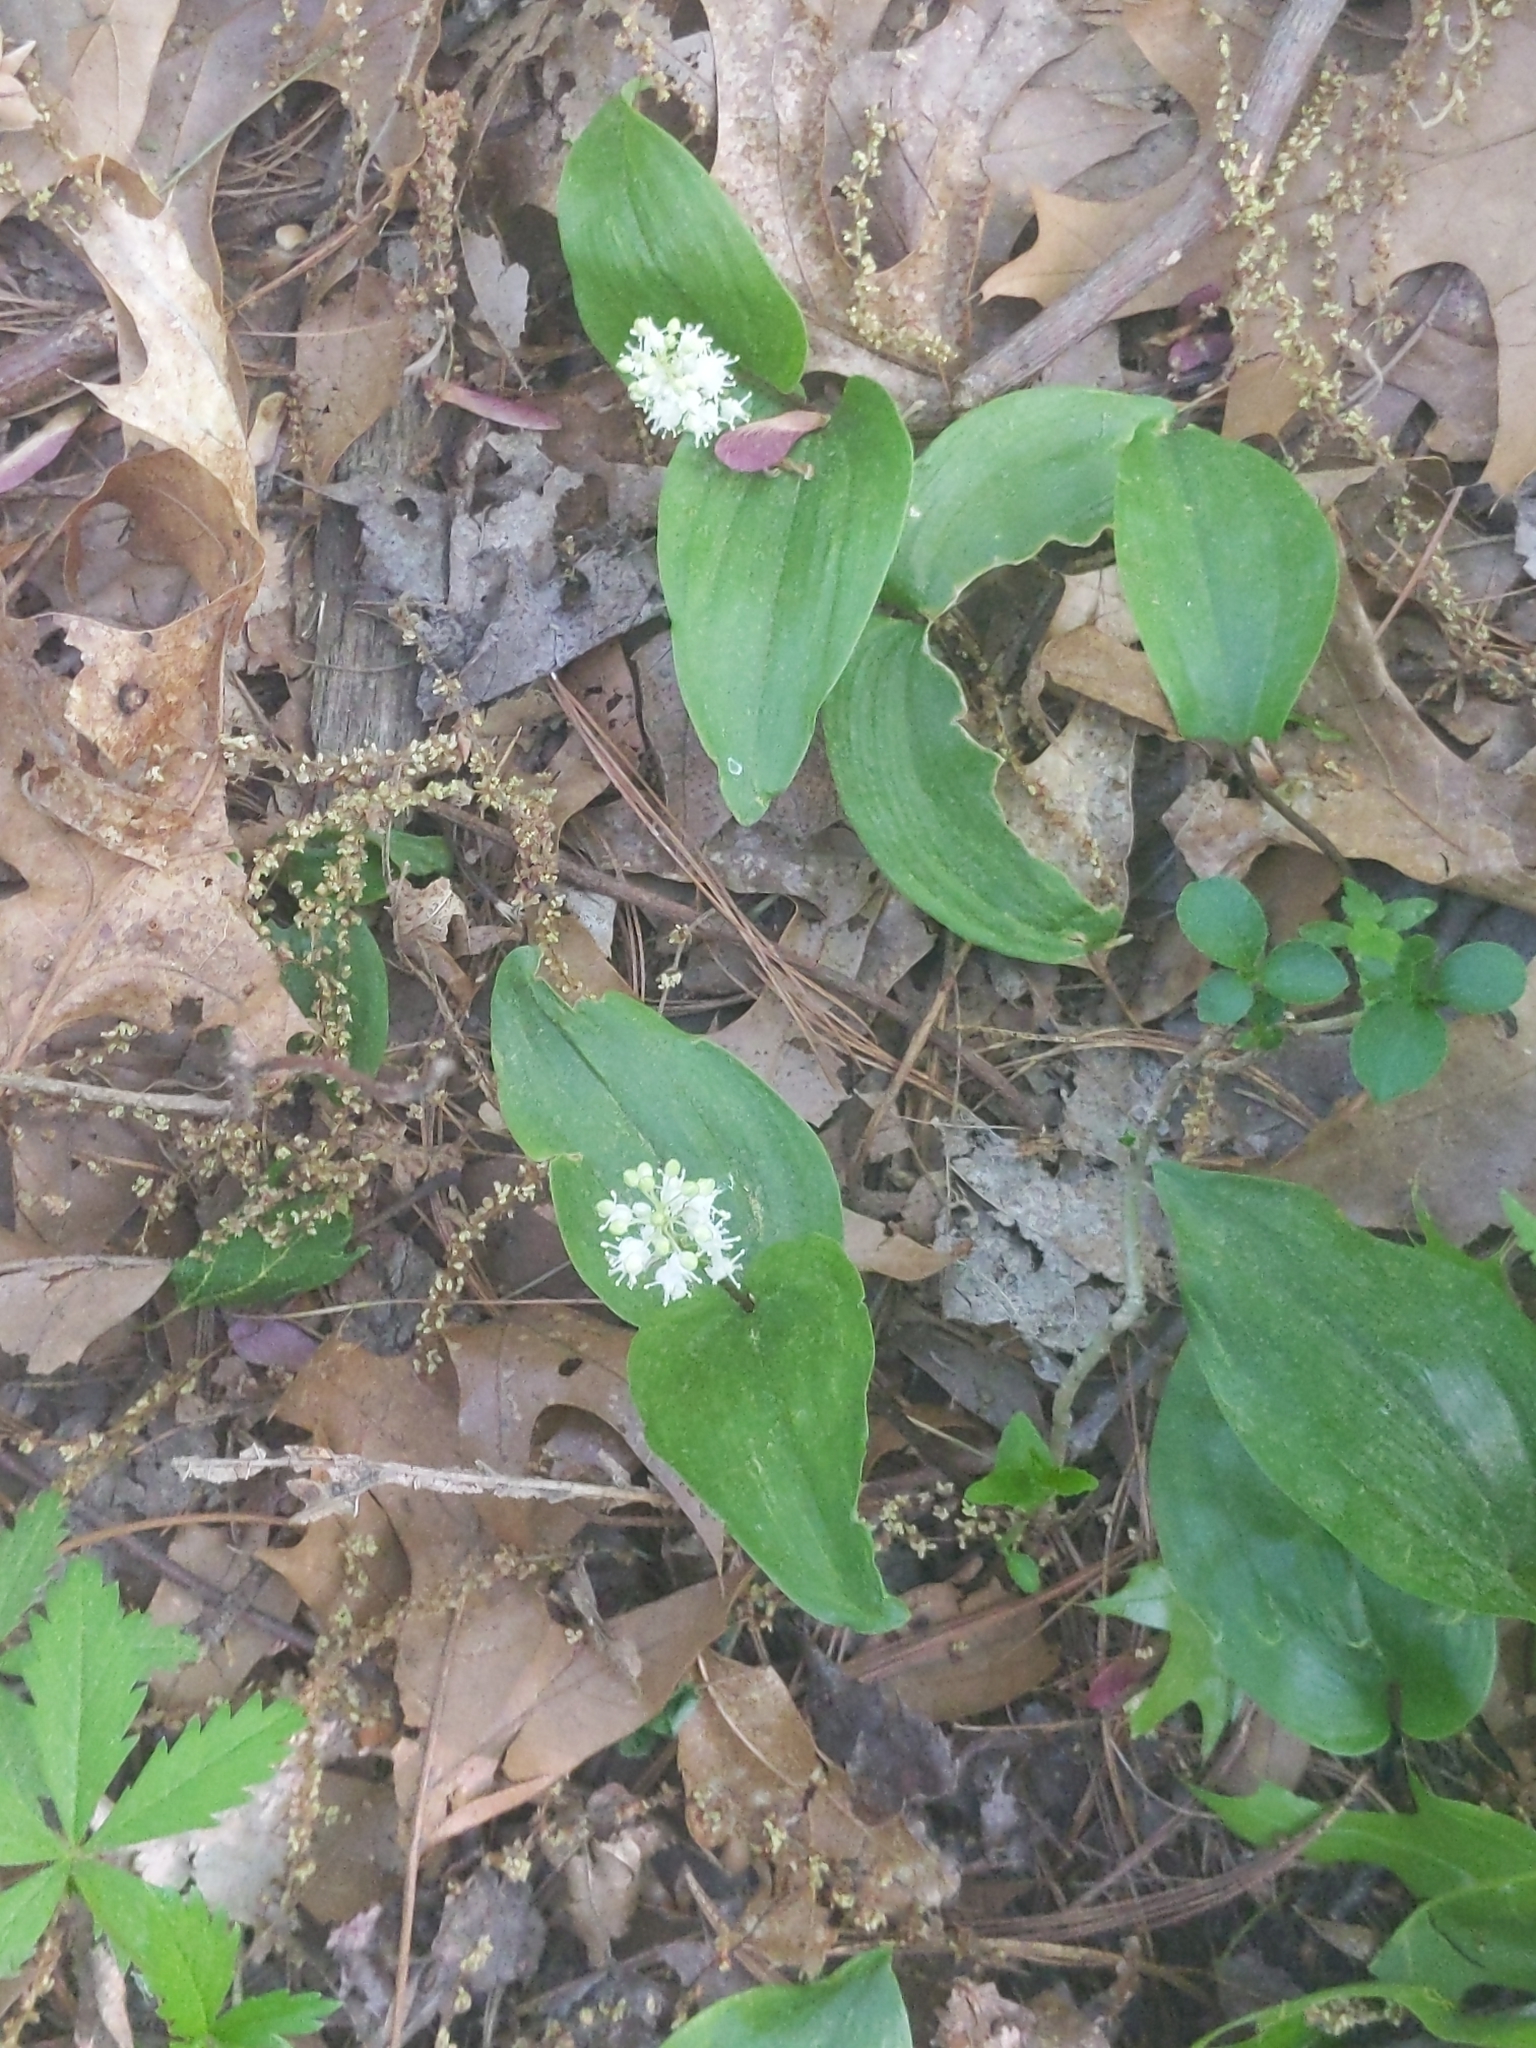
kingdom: Plantae
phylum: Tracheophyta
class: Liliopsida
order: Asparagales
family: Asparagaceae
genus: Maianthemum
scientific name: Maianthemum canadense
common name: False lily-of-the-valley
